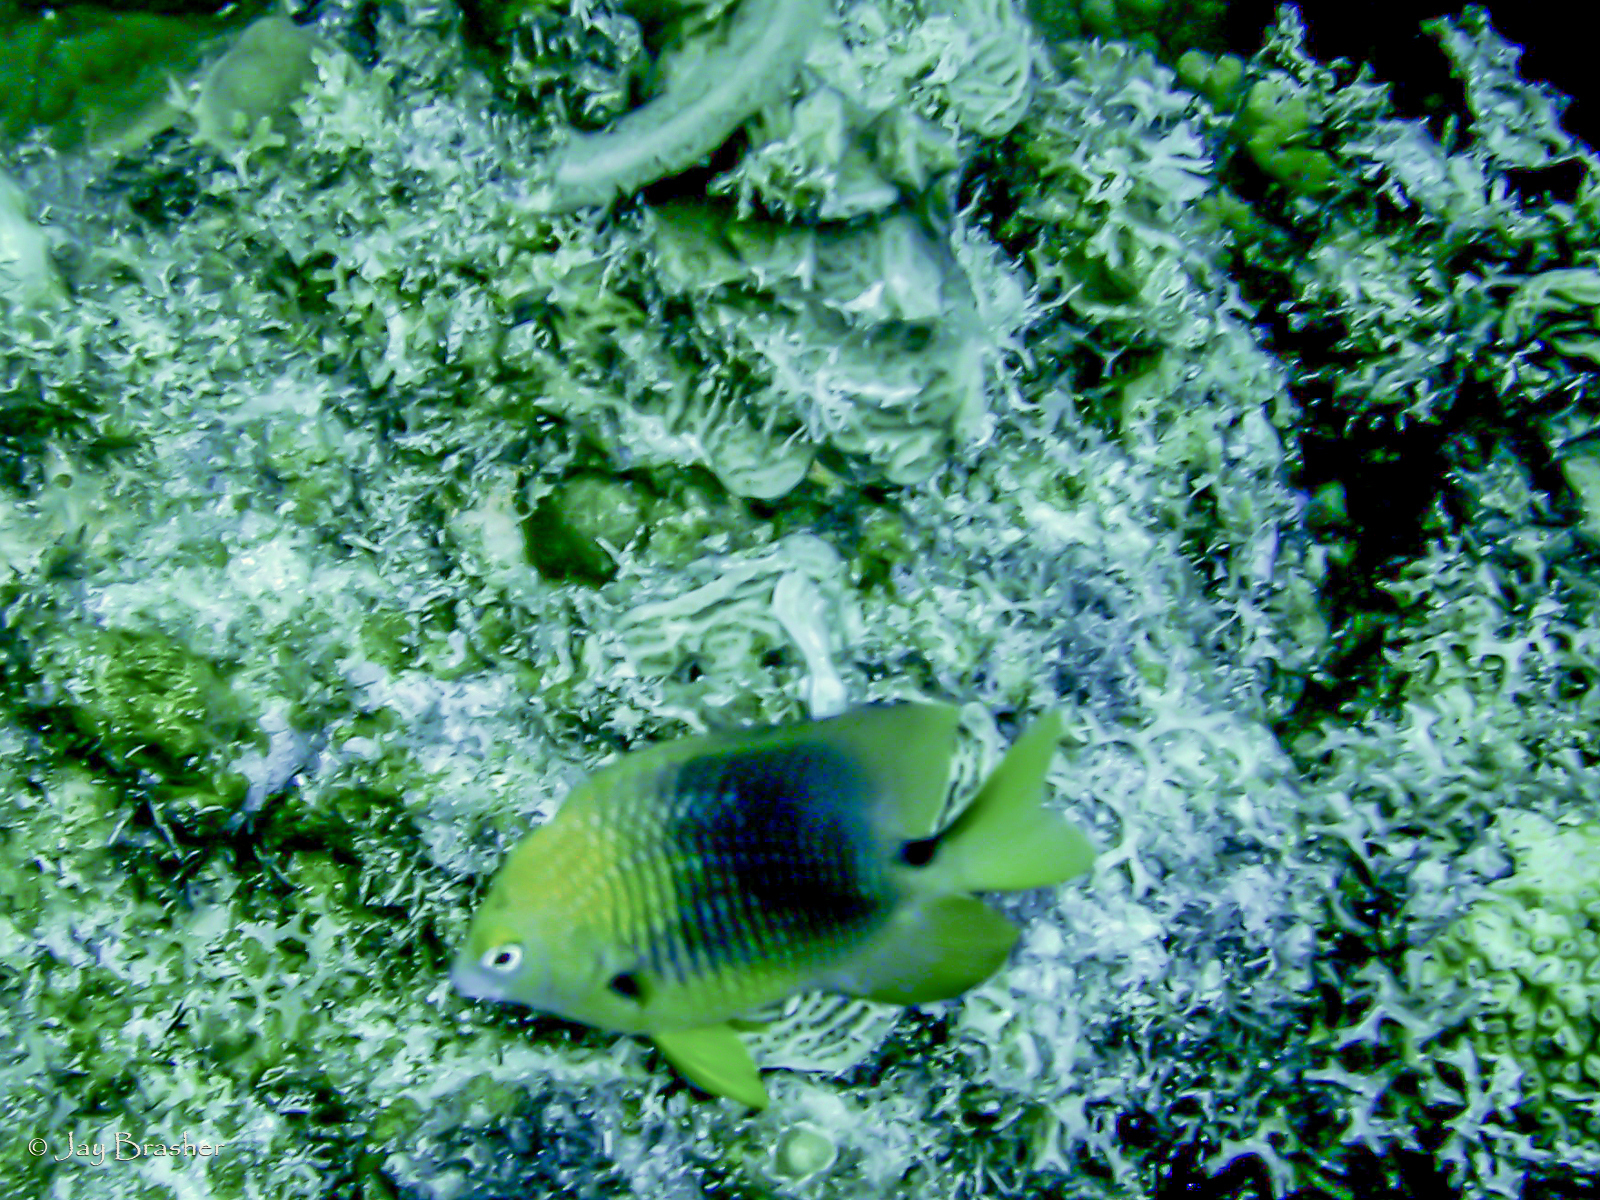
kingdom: Animalia
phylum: Chordata
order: Perciformes
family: Pomacentridae
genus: Stegastes
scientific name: Stegastes planifrons
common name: Threespot damselfish
